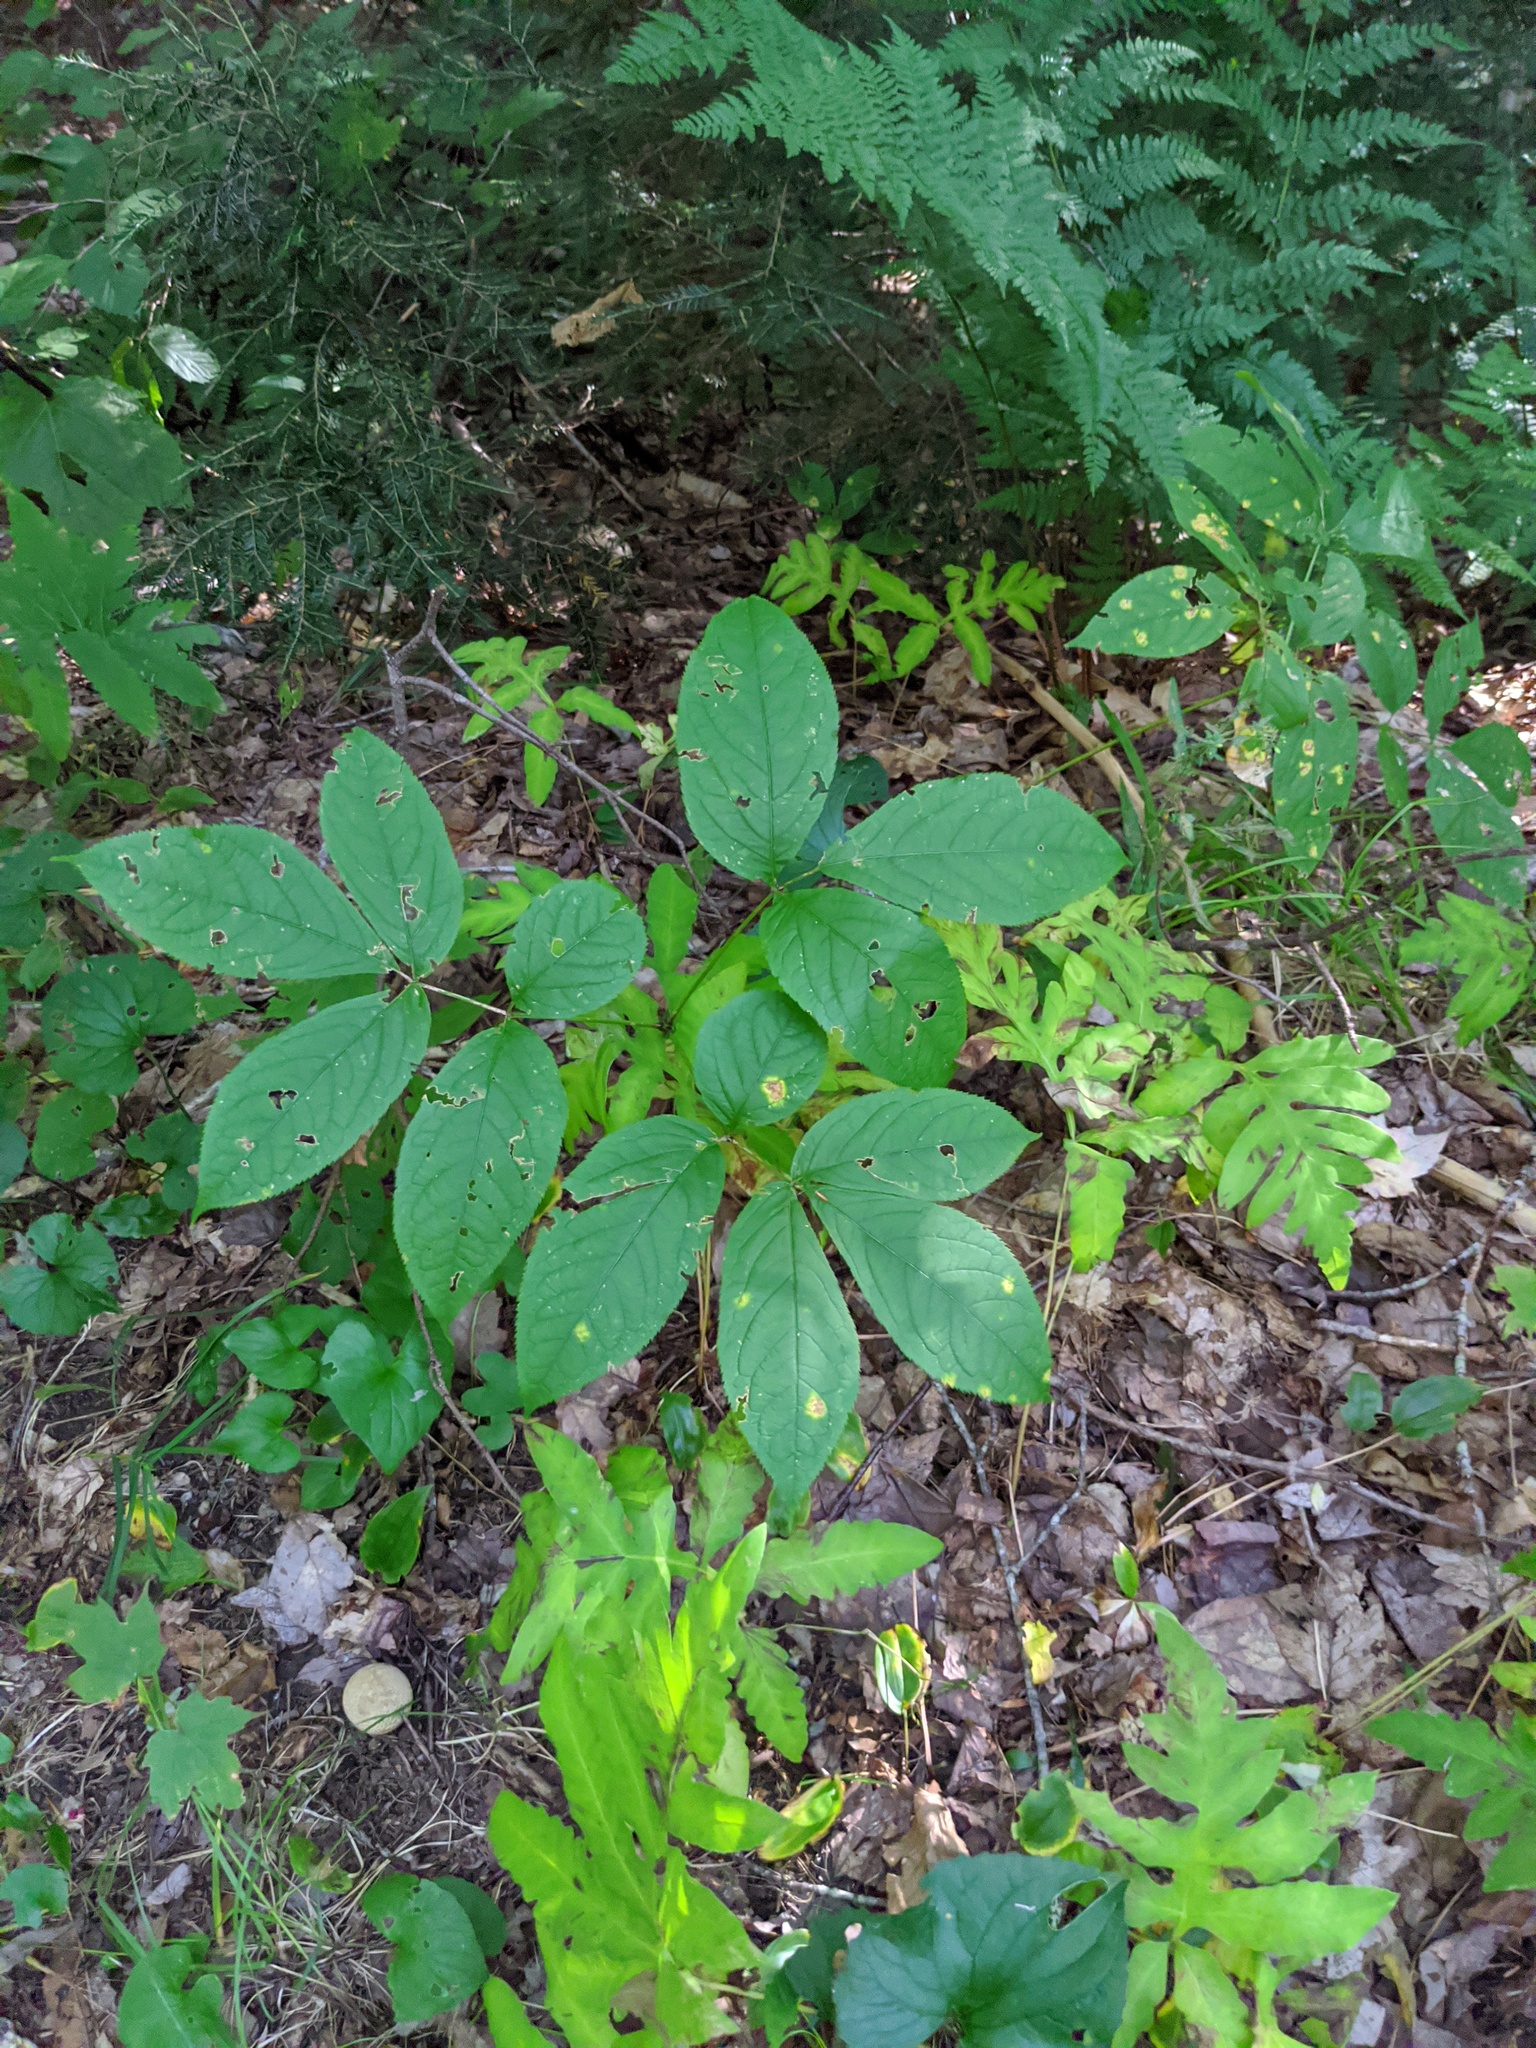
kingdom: Plantae
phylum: Tracheophyta
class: Magnoliopsida
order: Apiales
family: Araliaceae
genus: Aralia
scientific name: Aralia nudicaulis
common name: Wild sarsaparilla
